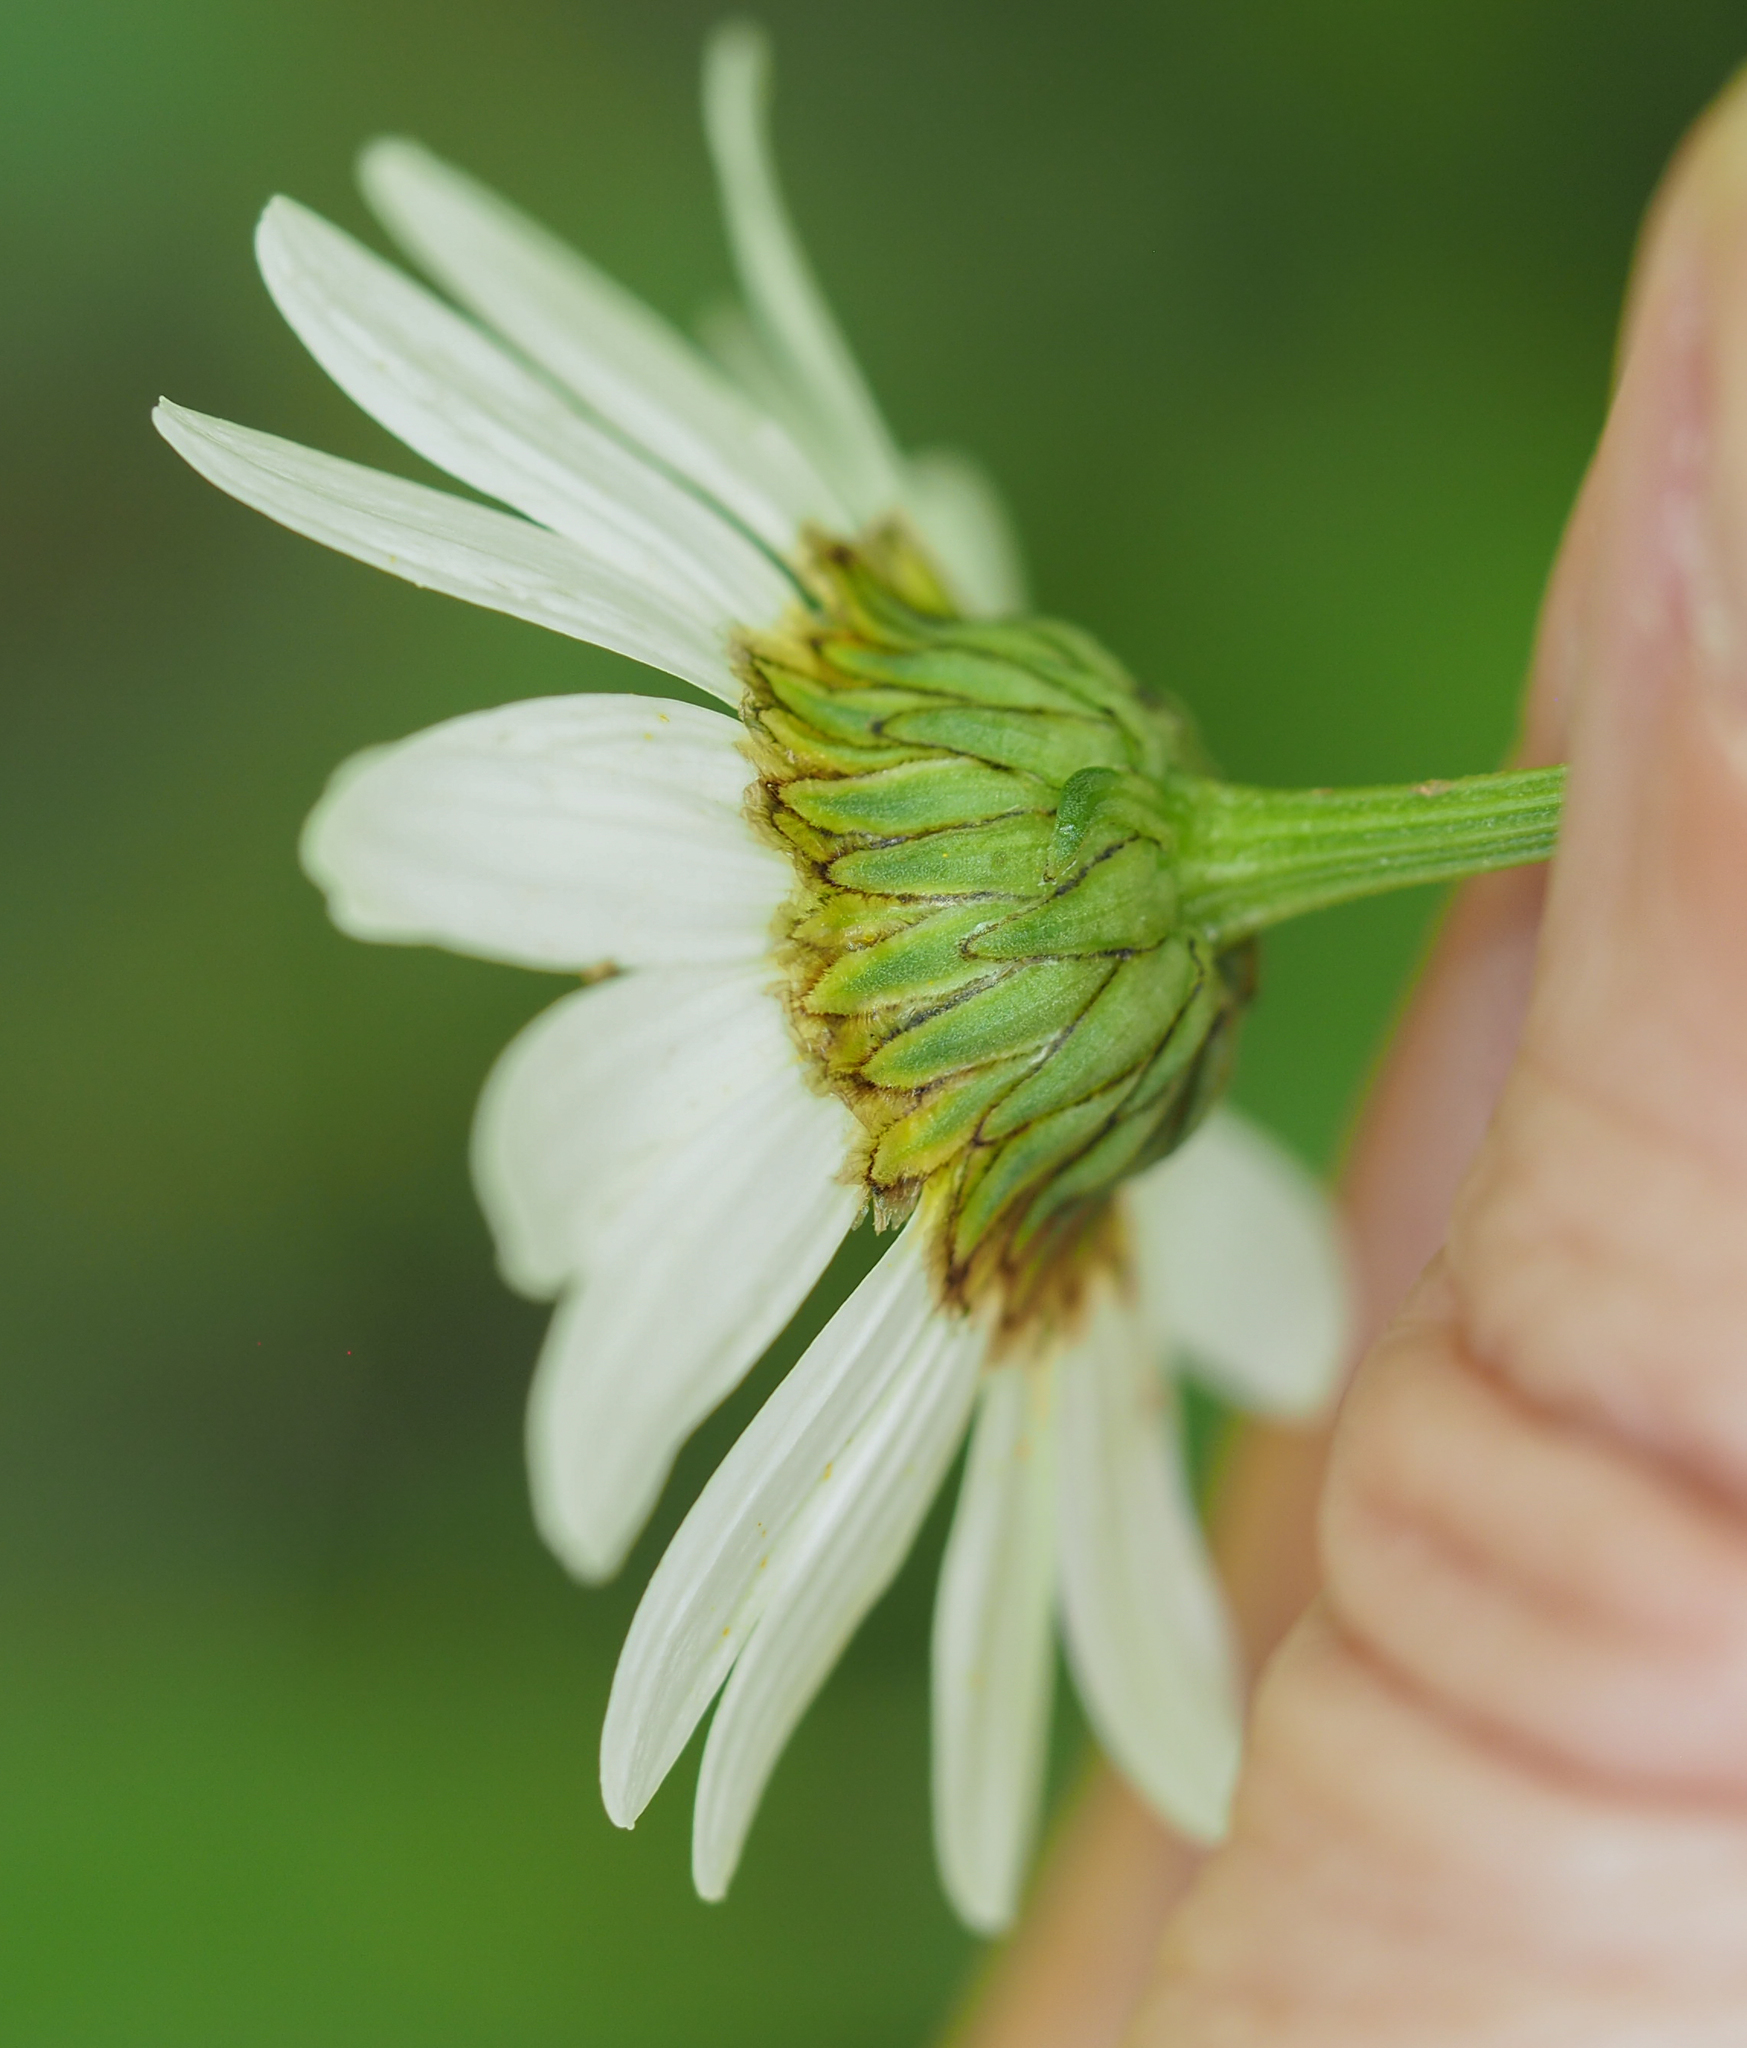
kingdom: Plantae
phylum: Tracheophyta
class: Magnoliopsida
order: Asterales
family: Asteraceae
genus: Leucanthemum
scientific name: Leucanthemum vulgare
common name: Oxeye daisy
